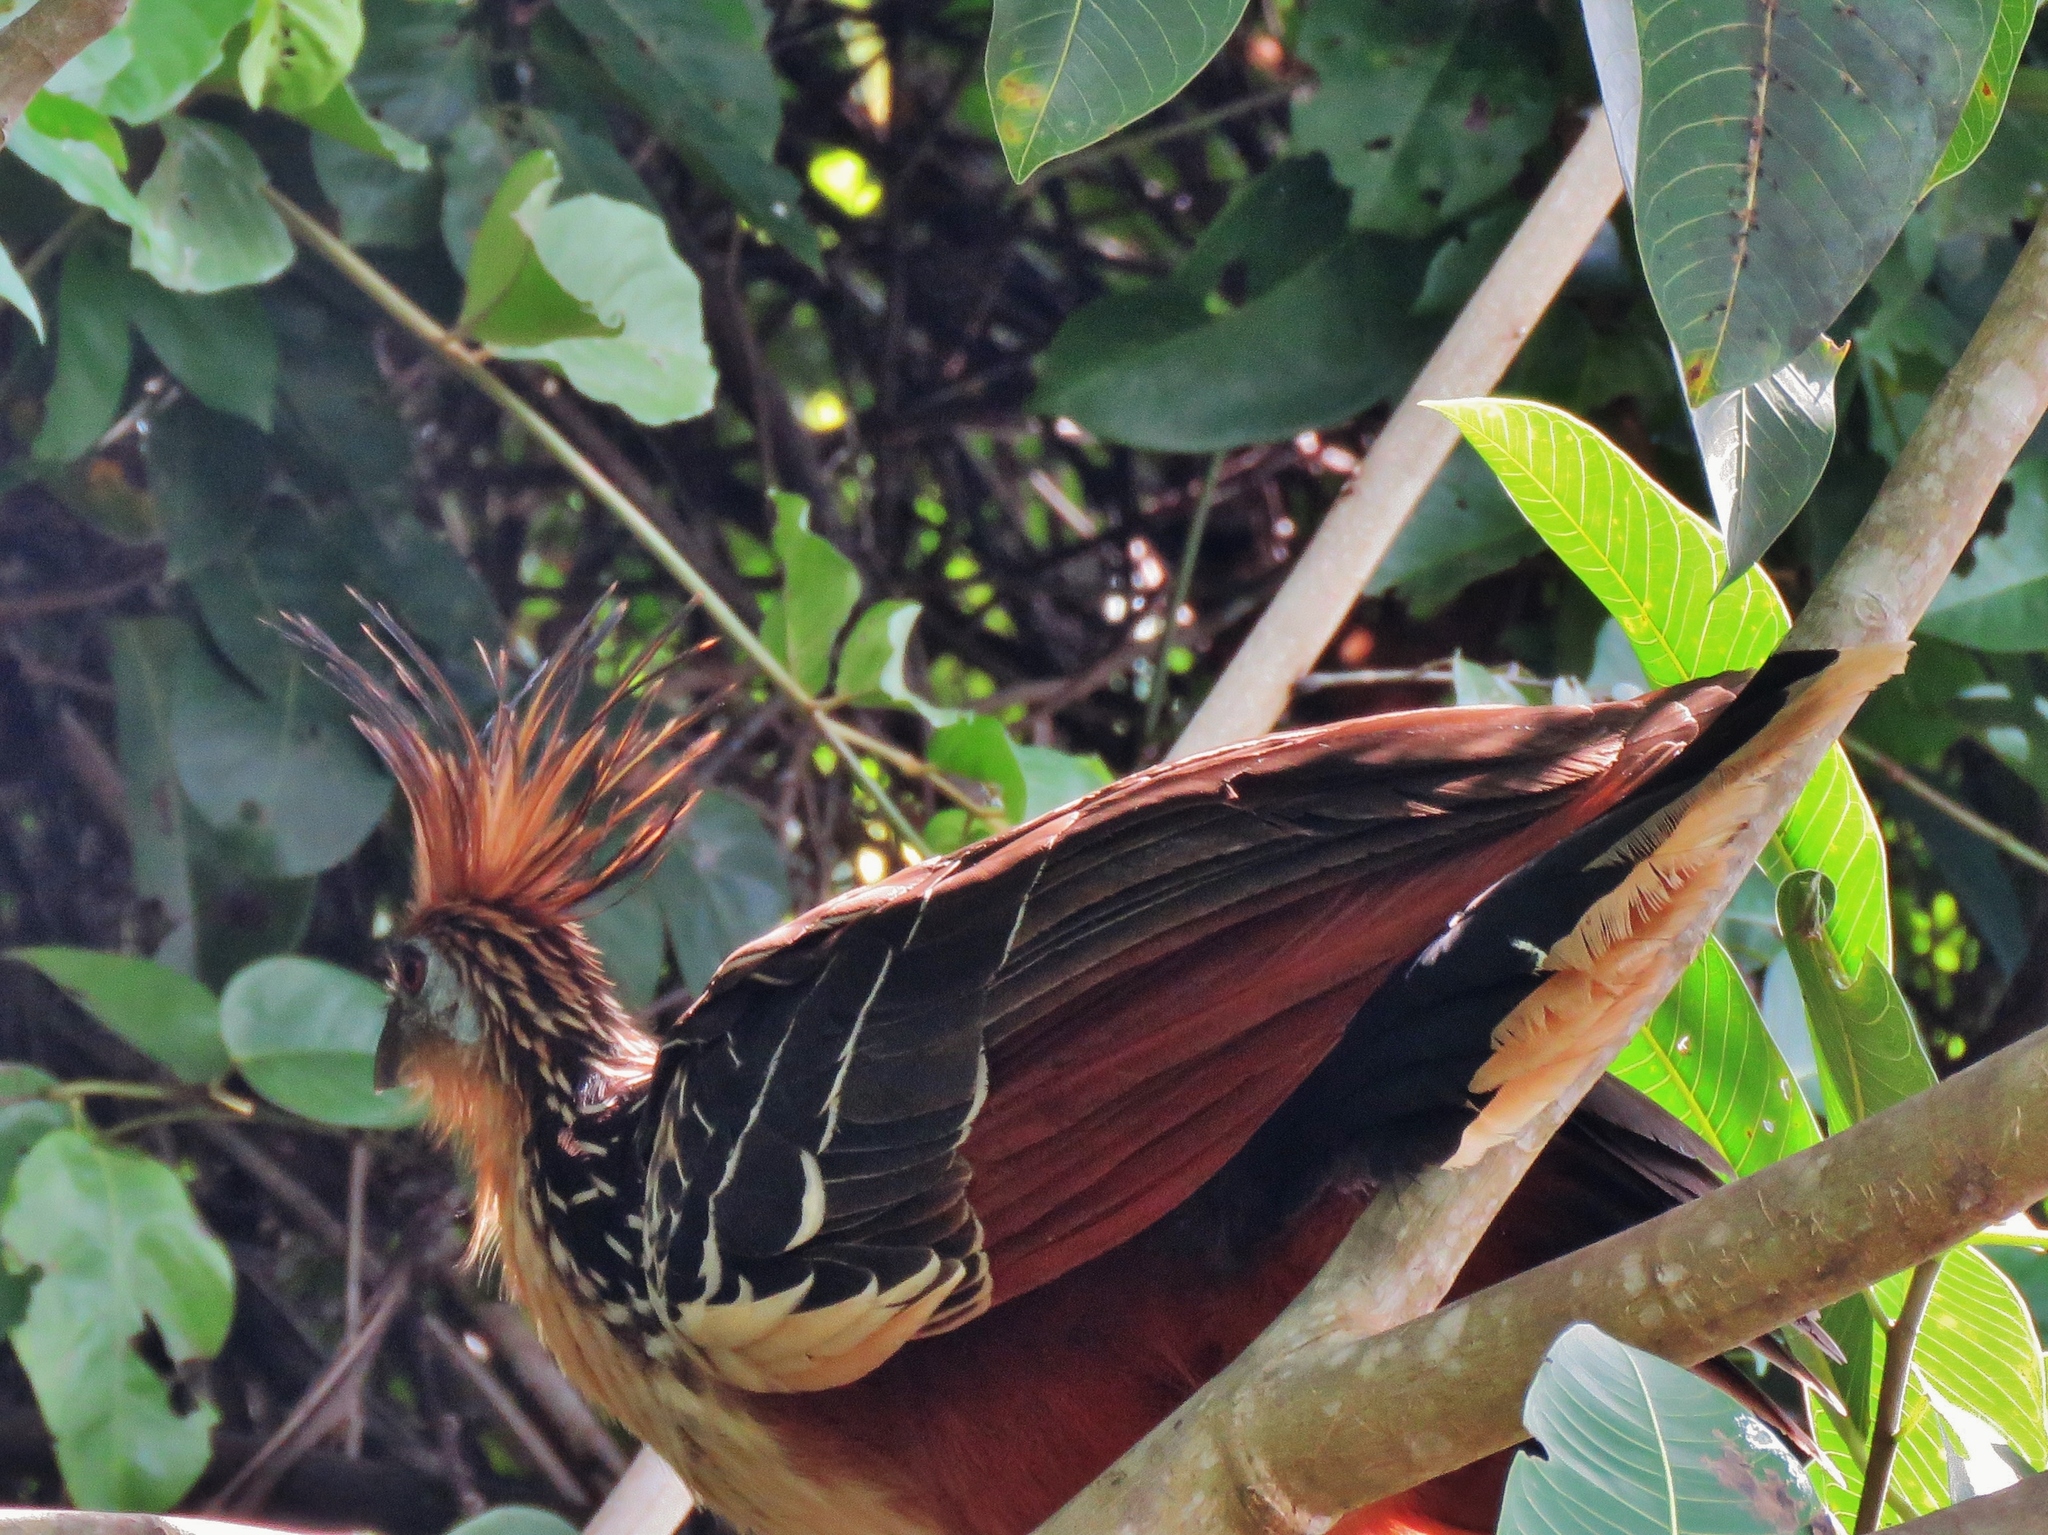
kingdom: Animalia
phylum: Chordata
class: Aves
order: Opisthocomiformes
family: Opisthocomidae
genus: Opisthocomus
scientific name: Opisthocomus hoazin
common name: Hoatzin
